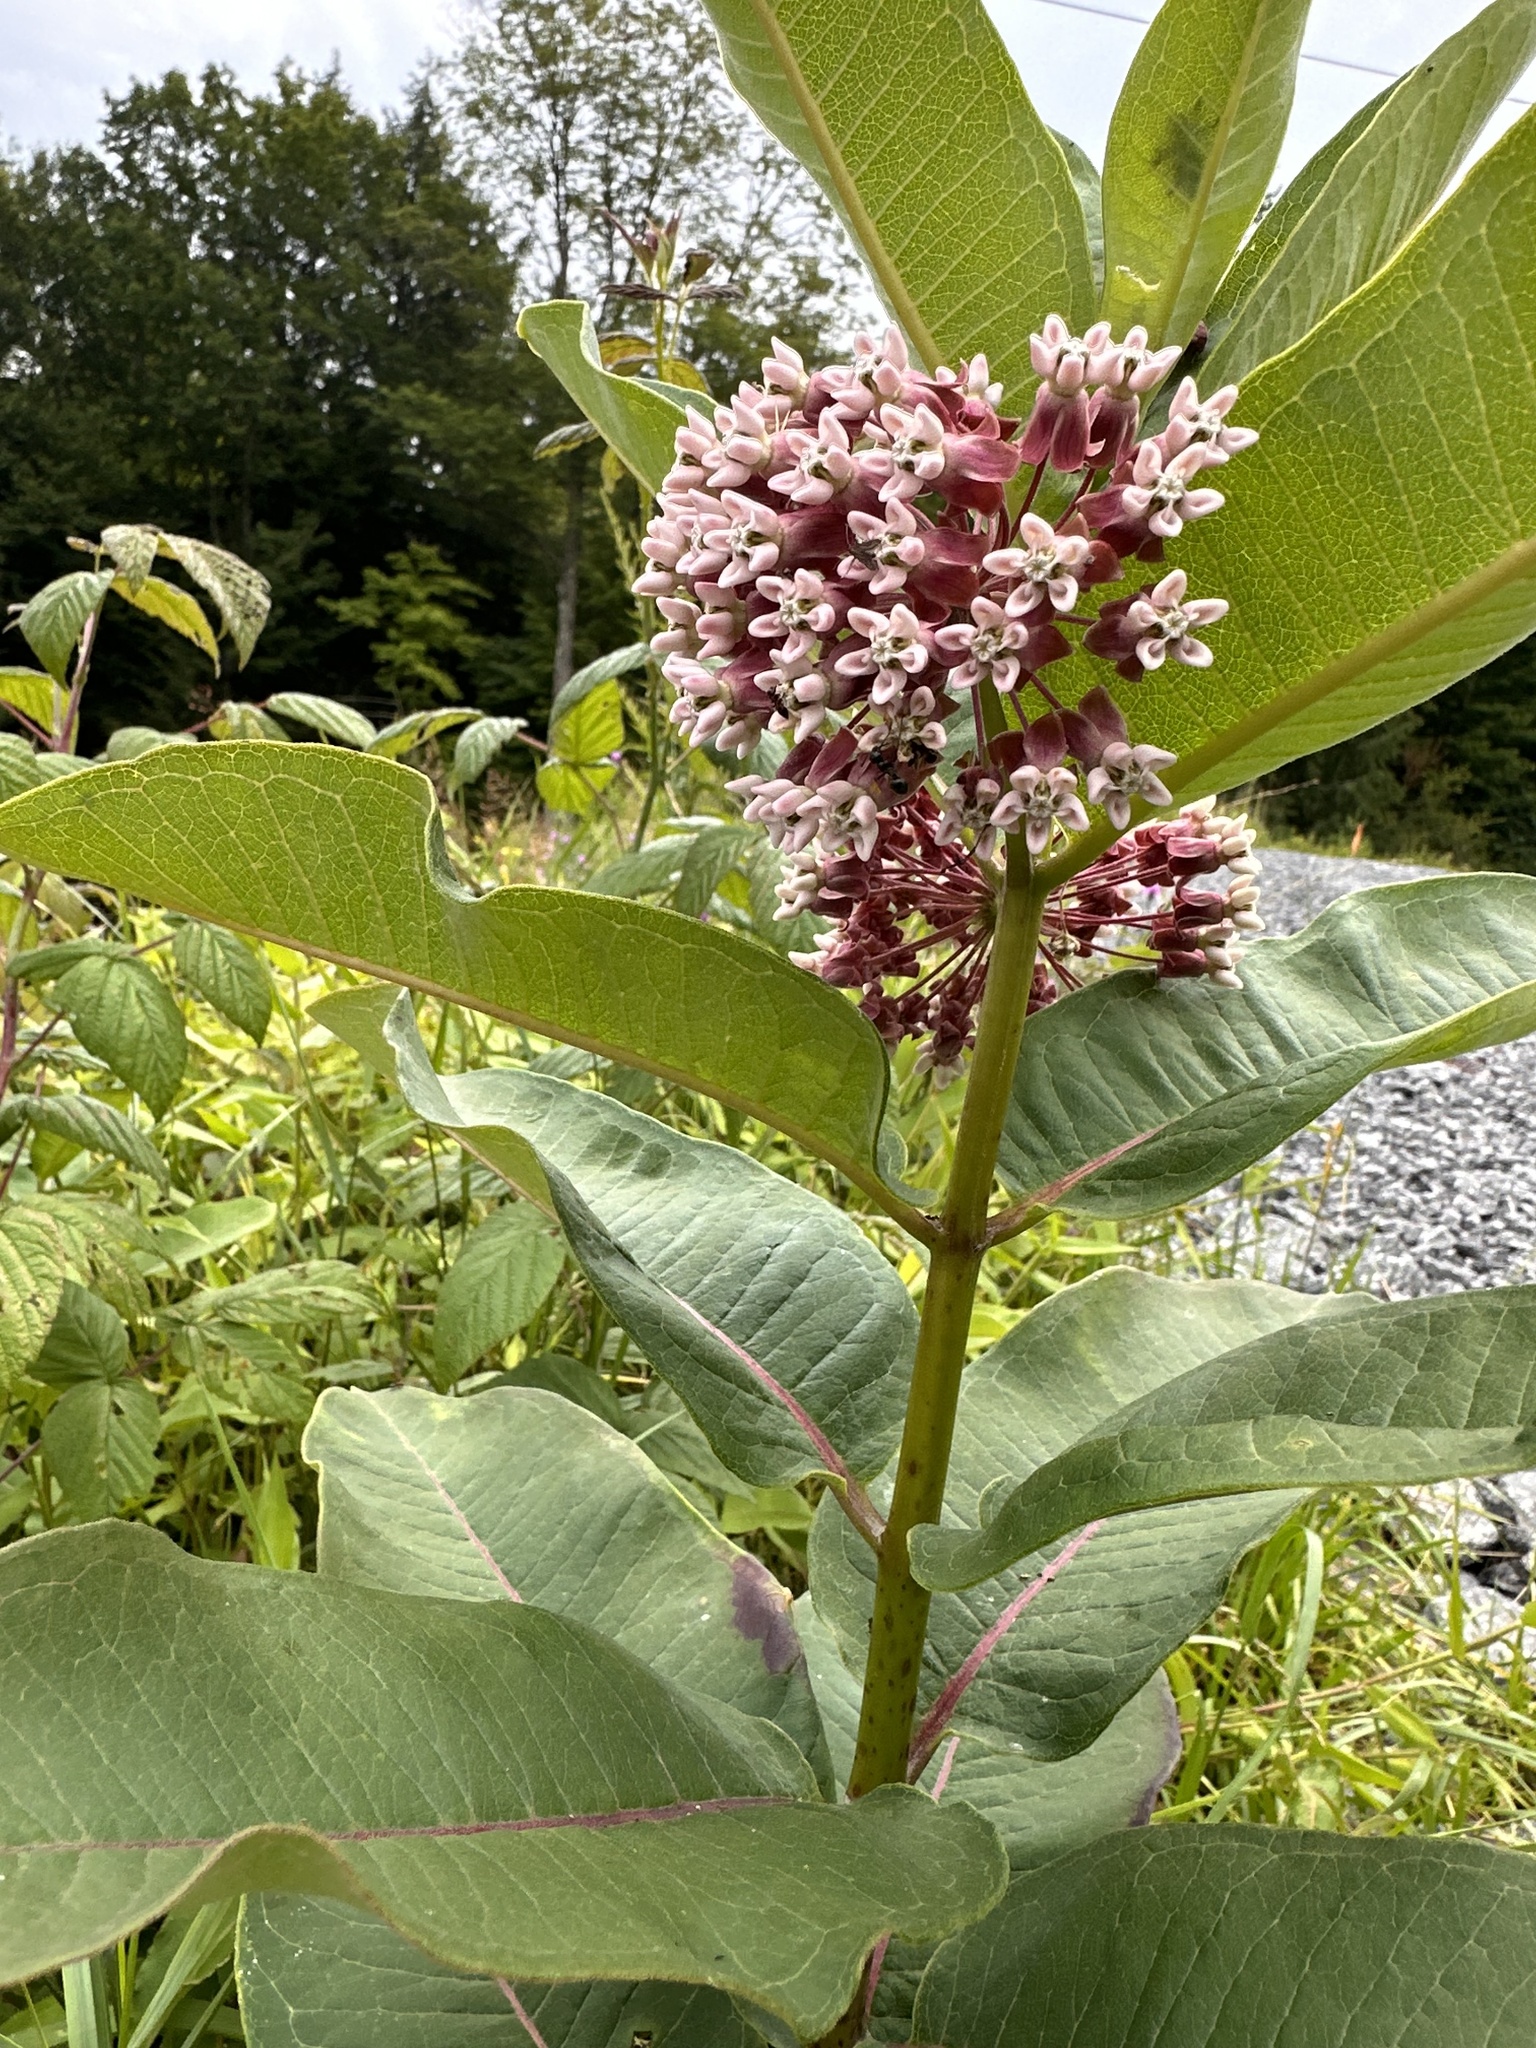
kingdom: Plantae
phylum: Tracheophyta
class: Magnoliopsida
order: Gentianales
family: Apocynaceae
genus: Asclepias
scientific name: Asclepias syriaca
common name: Common milkweed
